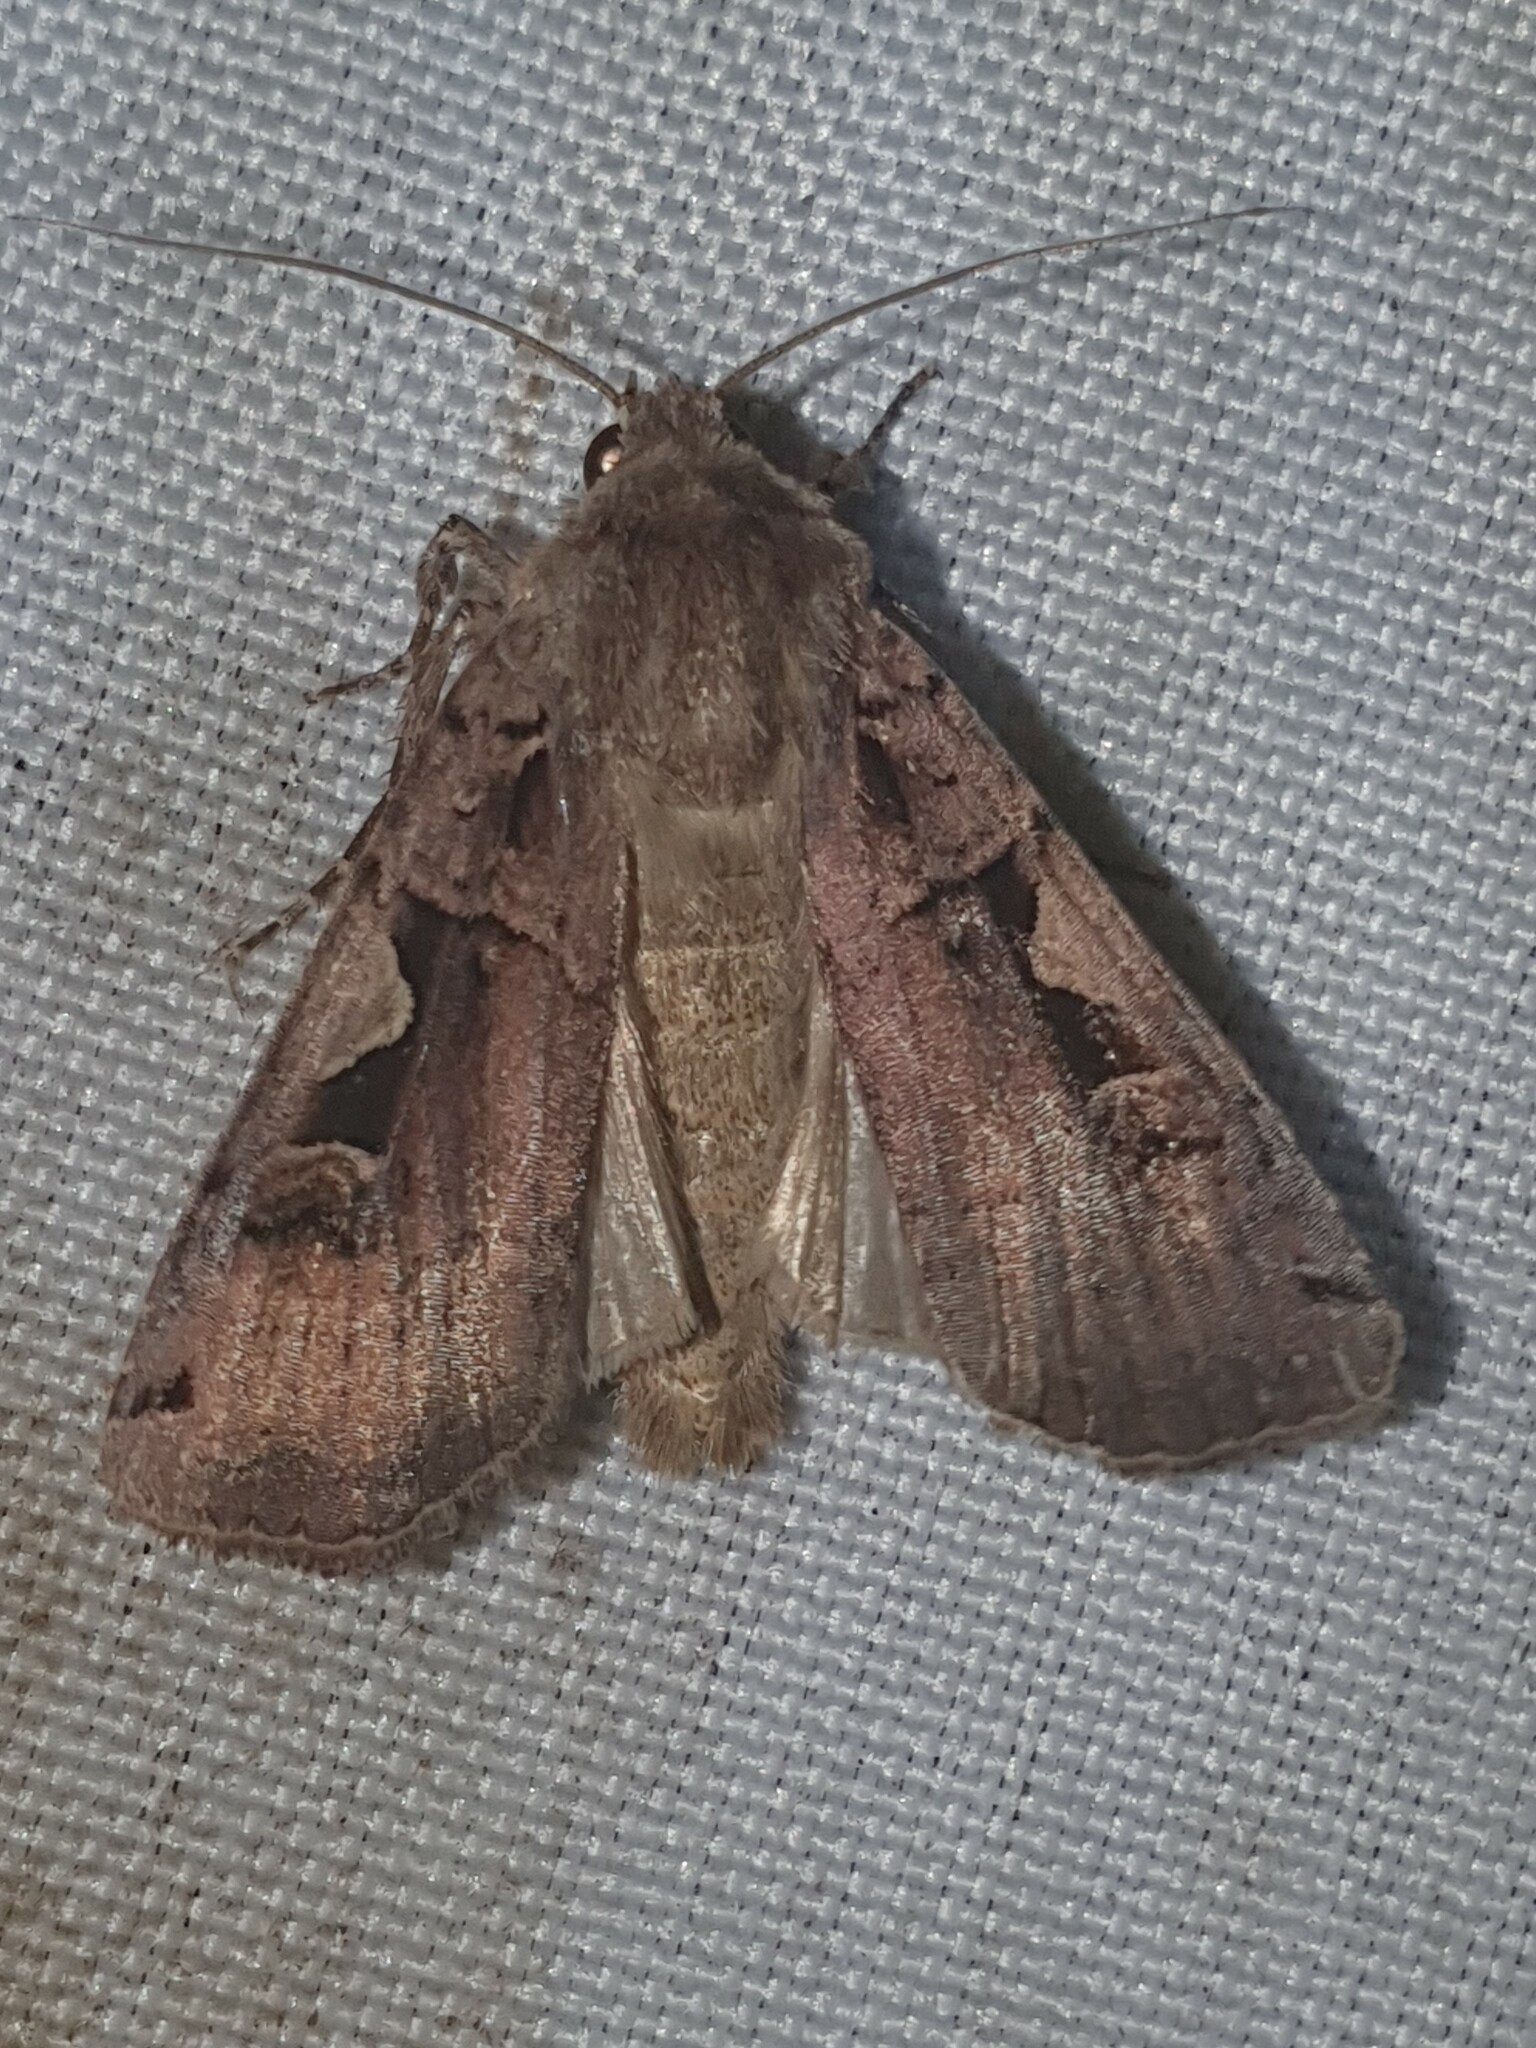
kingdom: Animalia
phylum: Arthropoda
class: Insecta
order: Lepidoptera
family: Noctuidae
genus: Xestia
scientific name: Xestia c-nigrum
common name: Setaceous hebrew character
